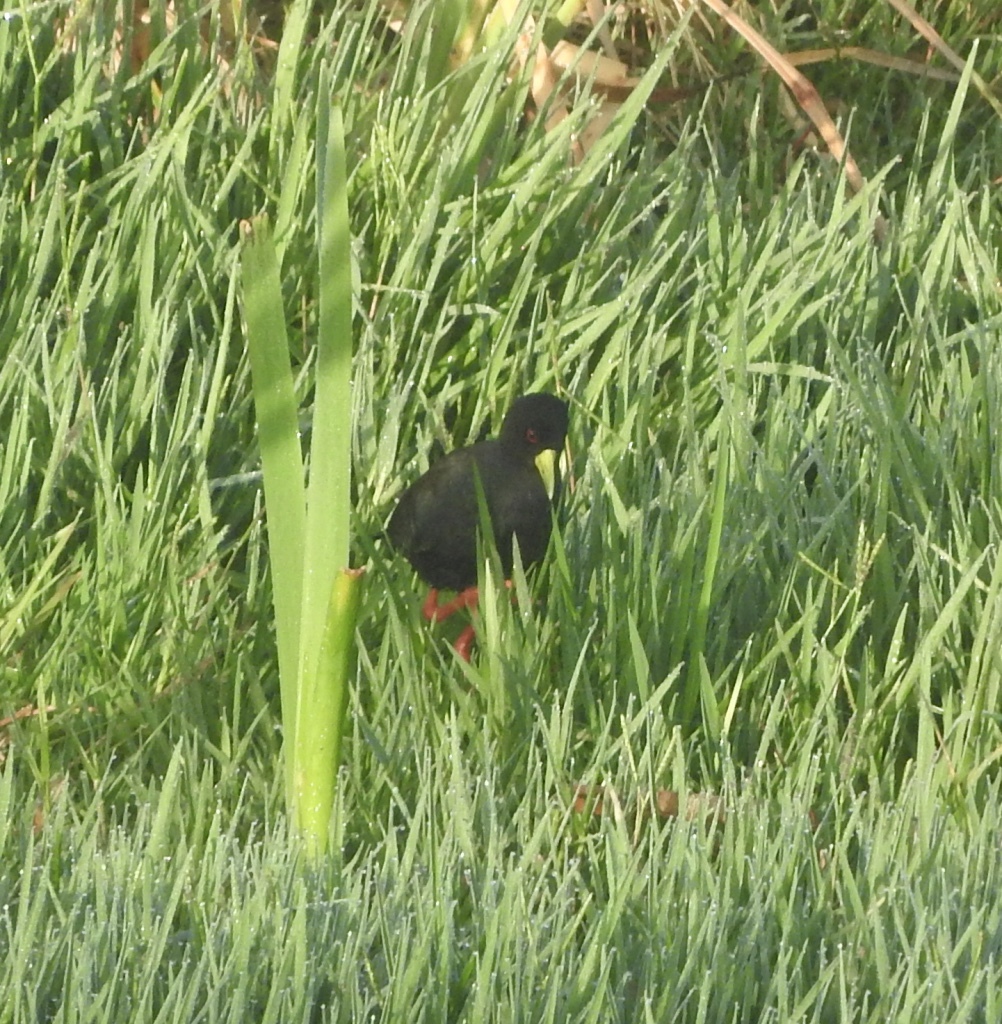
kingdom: Animalia
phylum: Chordata
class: Aves
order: Gruiformes
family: Rallidae
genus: Amaurornis
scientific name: Amaurornis flavirostra
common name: Black crake
